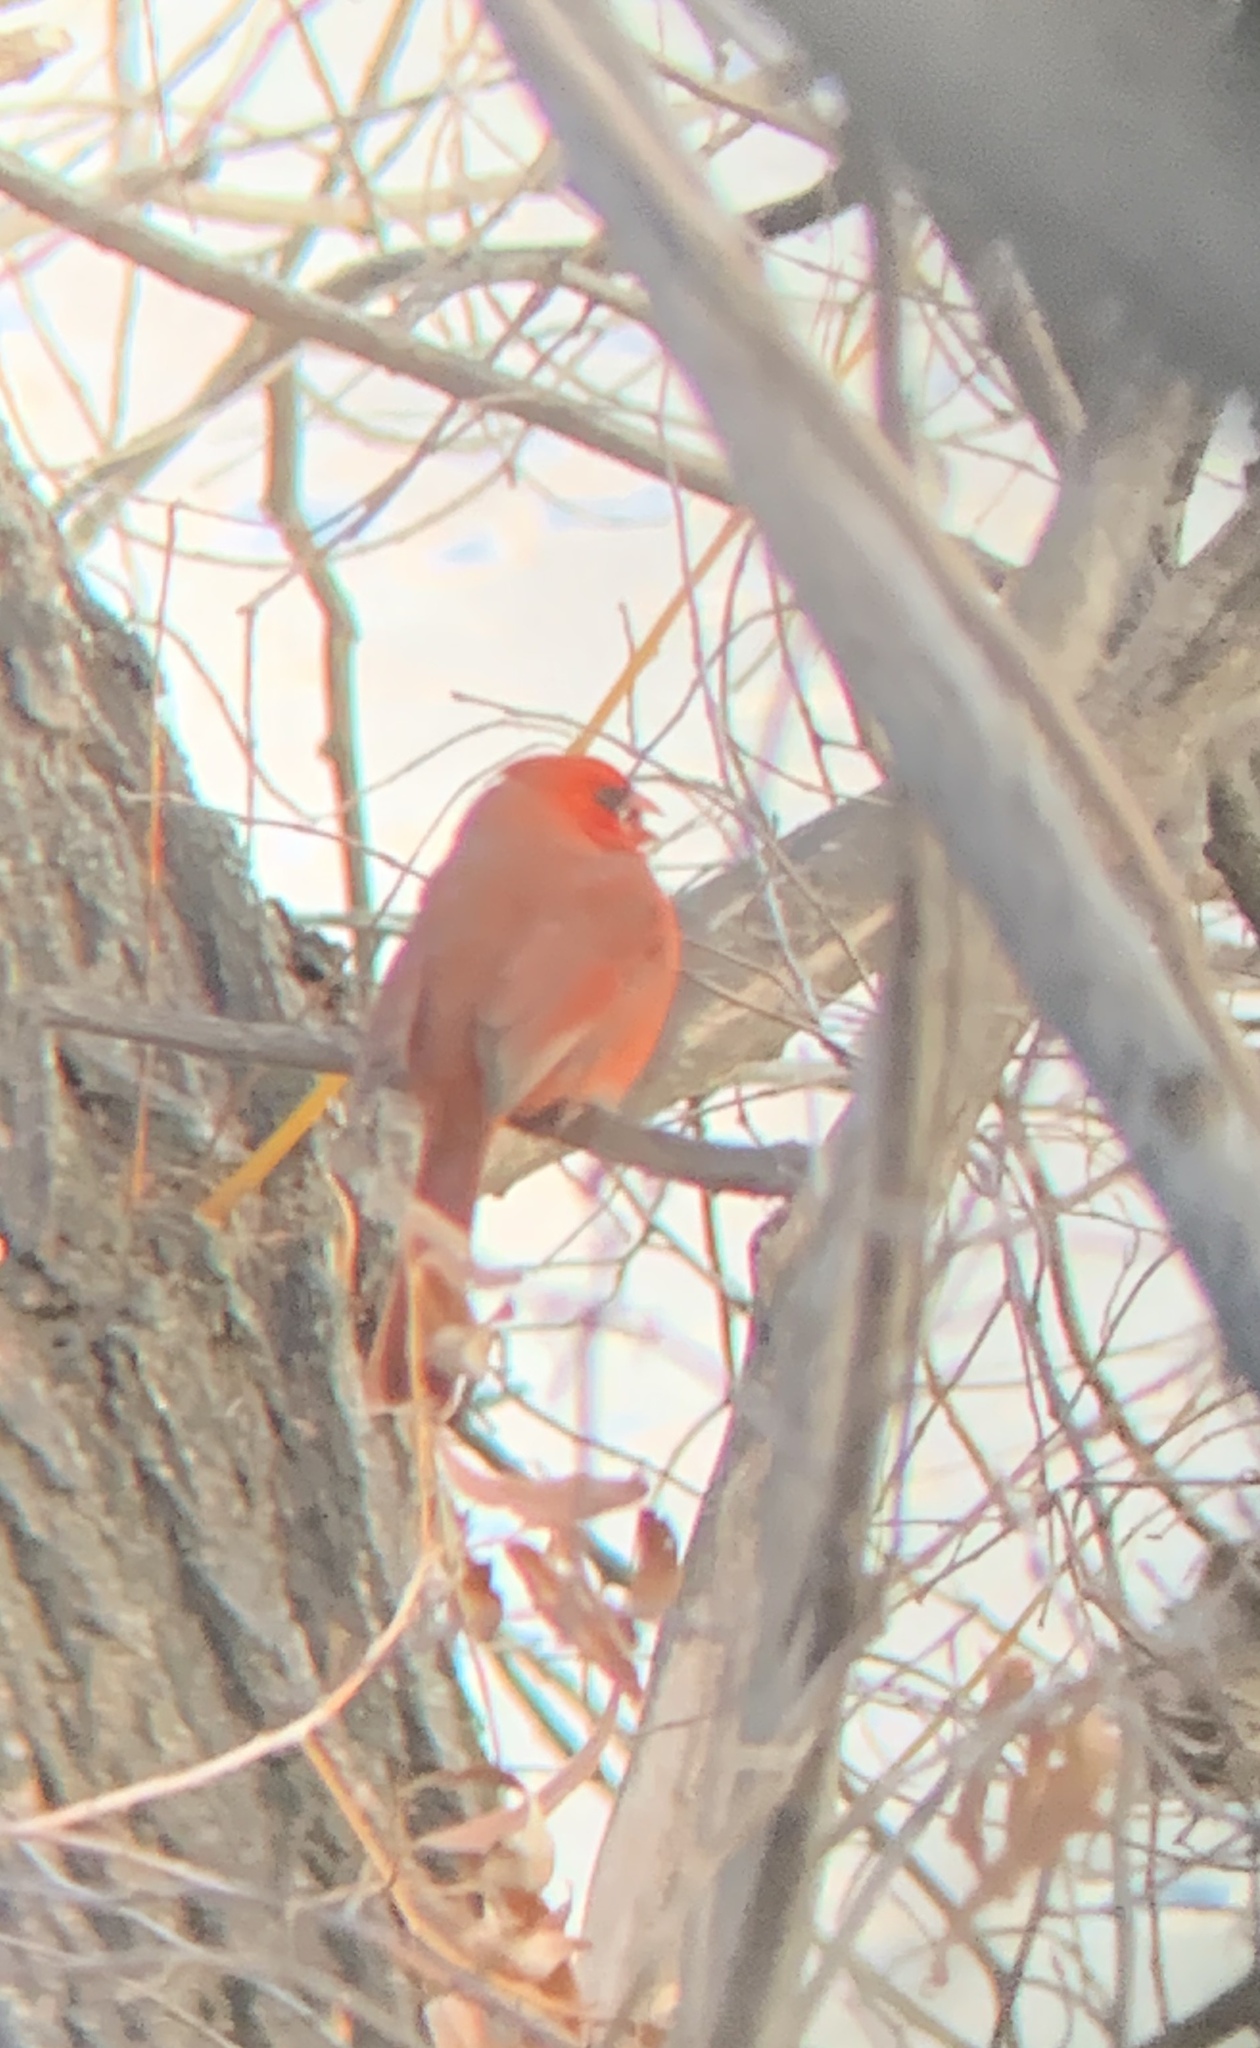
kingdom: Animalia
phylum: Chordata
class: Aves
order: Passeriformes
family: Cardinalidae
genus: Cardinalis
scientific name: Cardinalis cardinalis
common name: Northern cardinal
